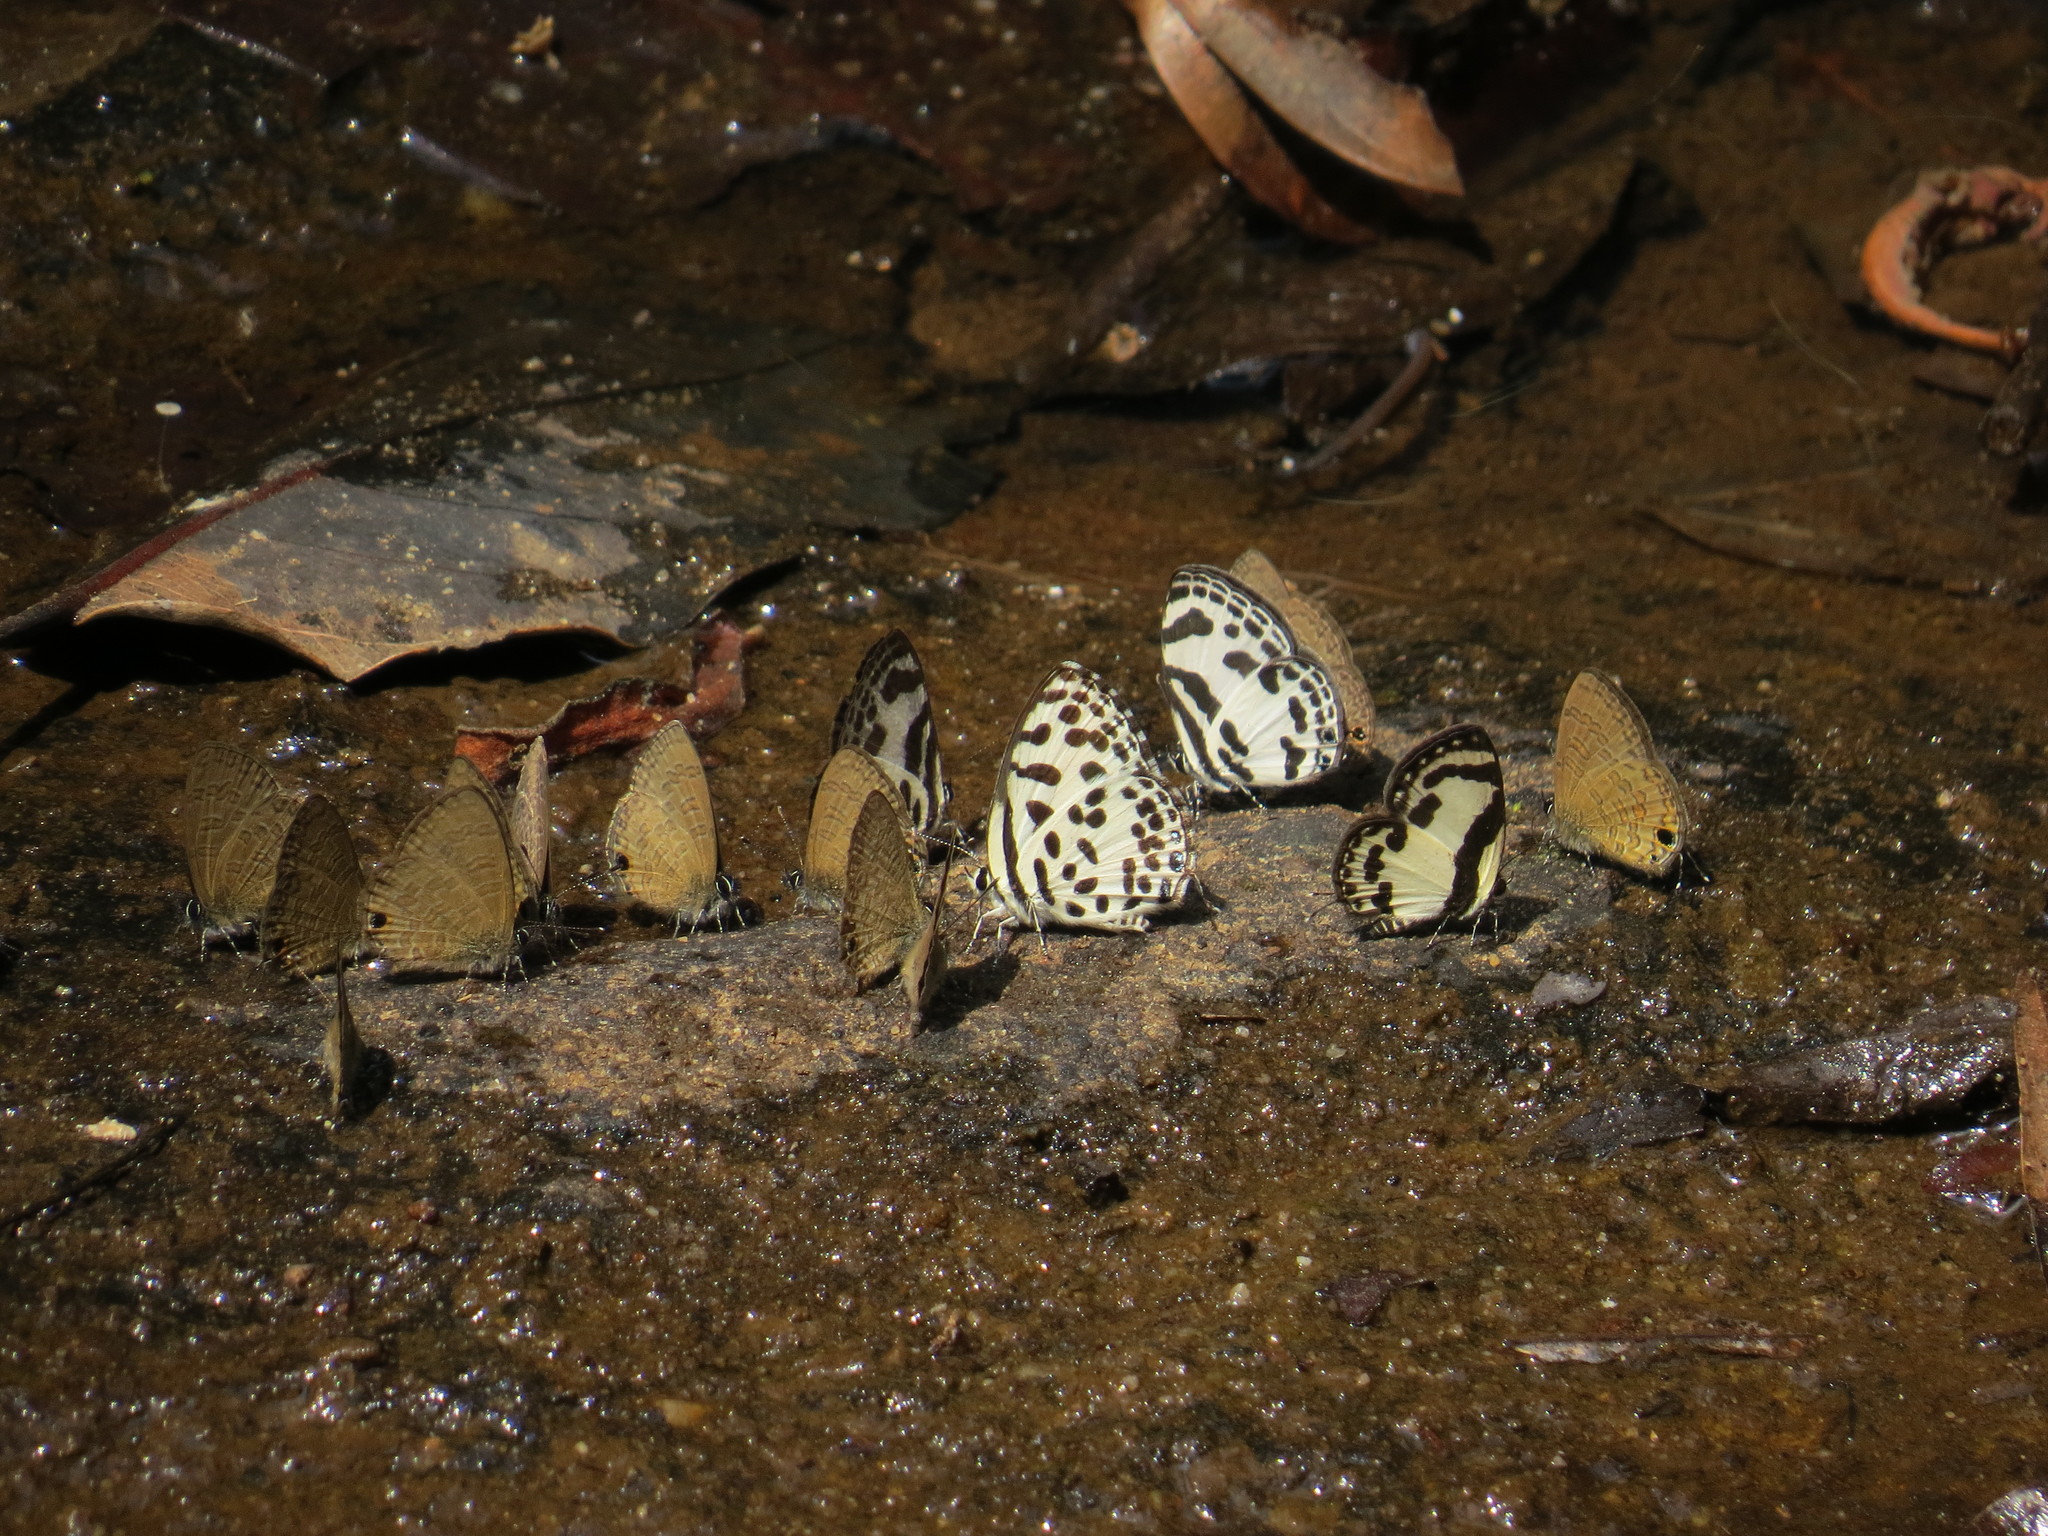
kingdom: Animalia
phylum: Arthropoda
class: Insecta
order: Lepidoptera
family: Lycaenidae
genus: Castalius
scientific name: Castalius rosimon
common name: Common pierrot
